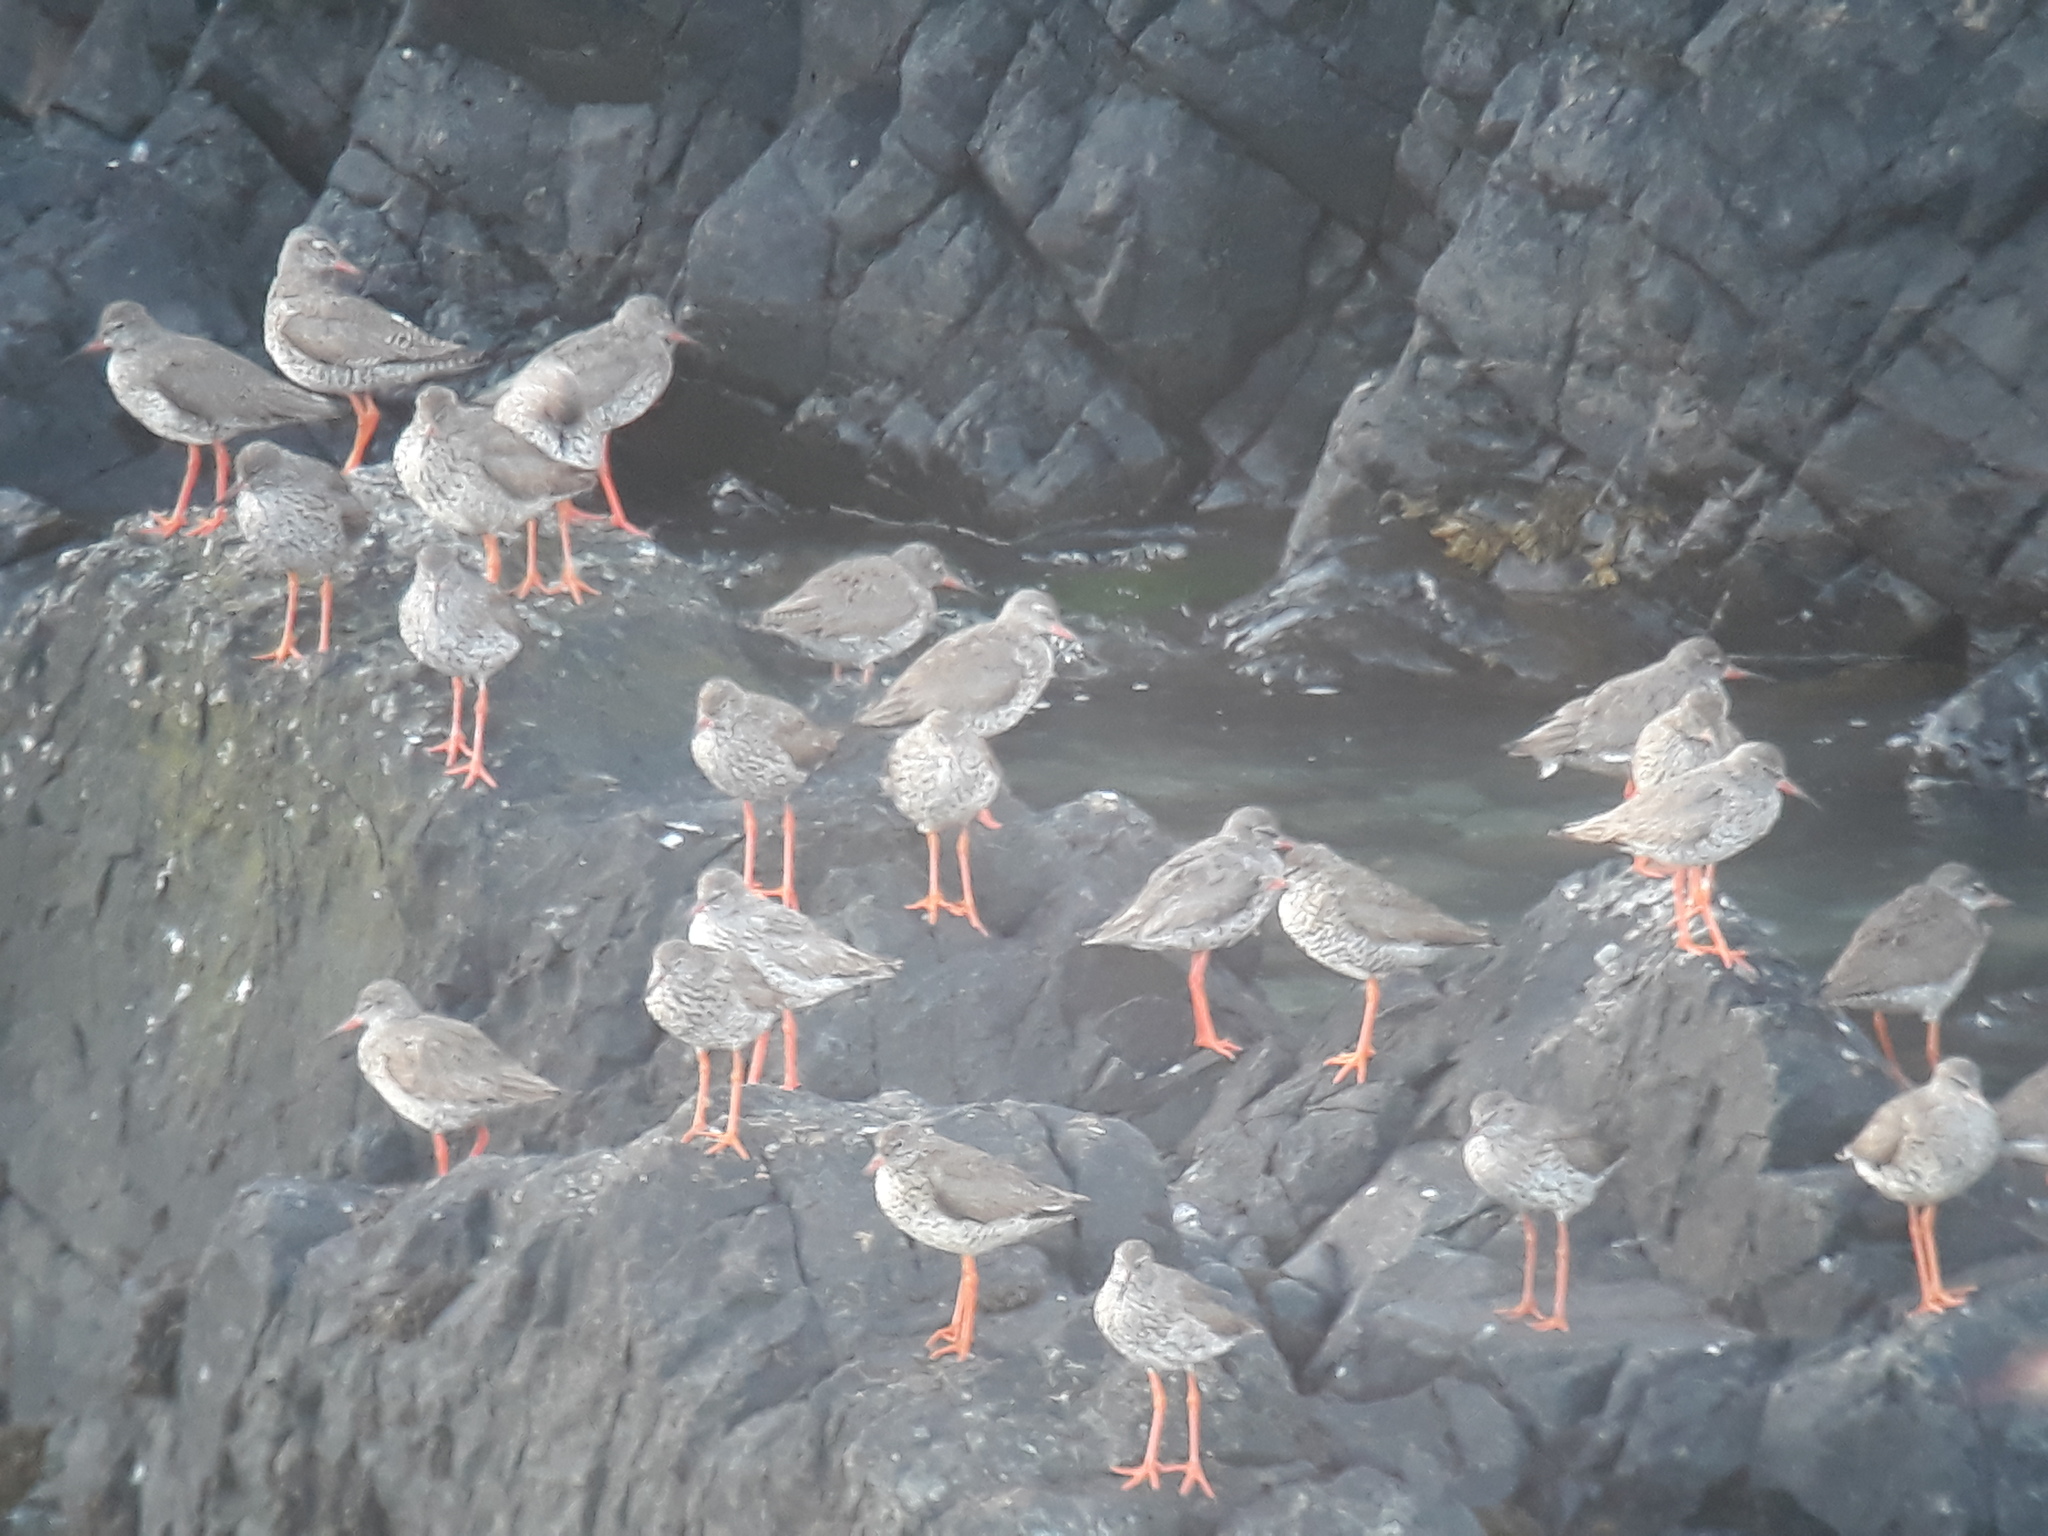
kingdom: Animalia
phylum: Chordata
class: Aves
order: Charadriiformes
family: Scolopacidae
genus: Tringa
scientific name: Tringa totanus
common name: Common redshank
